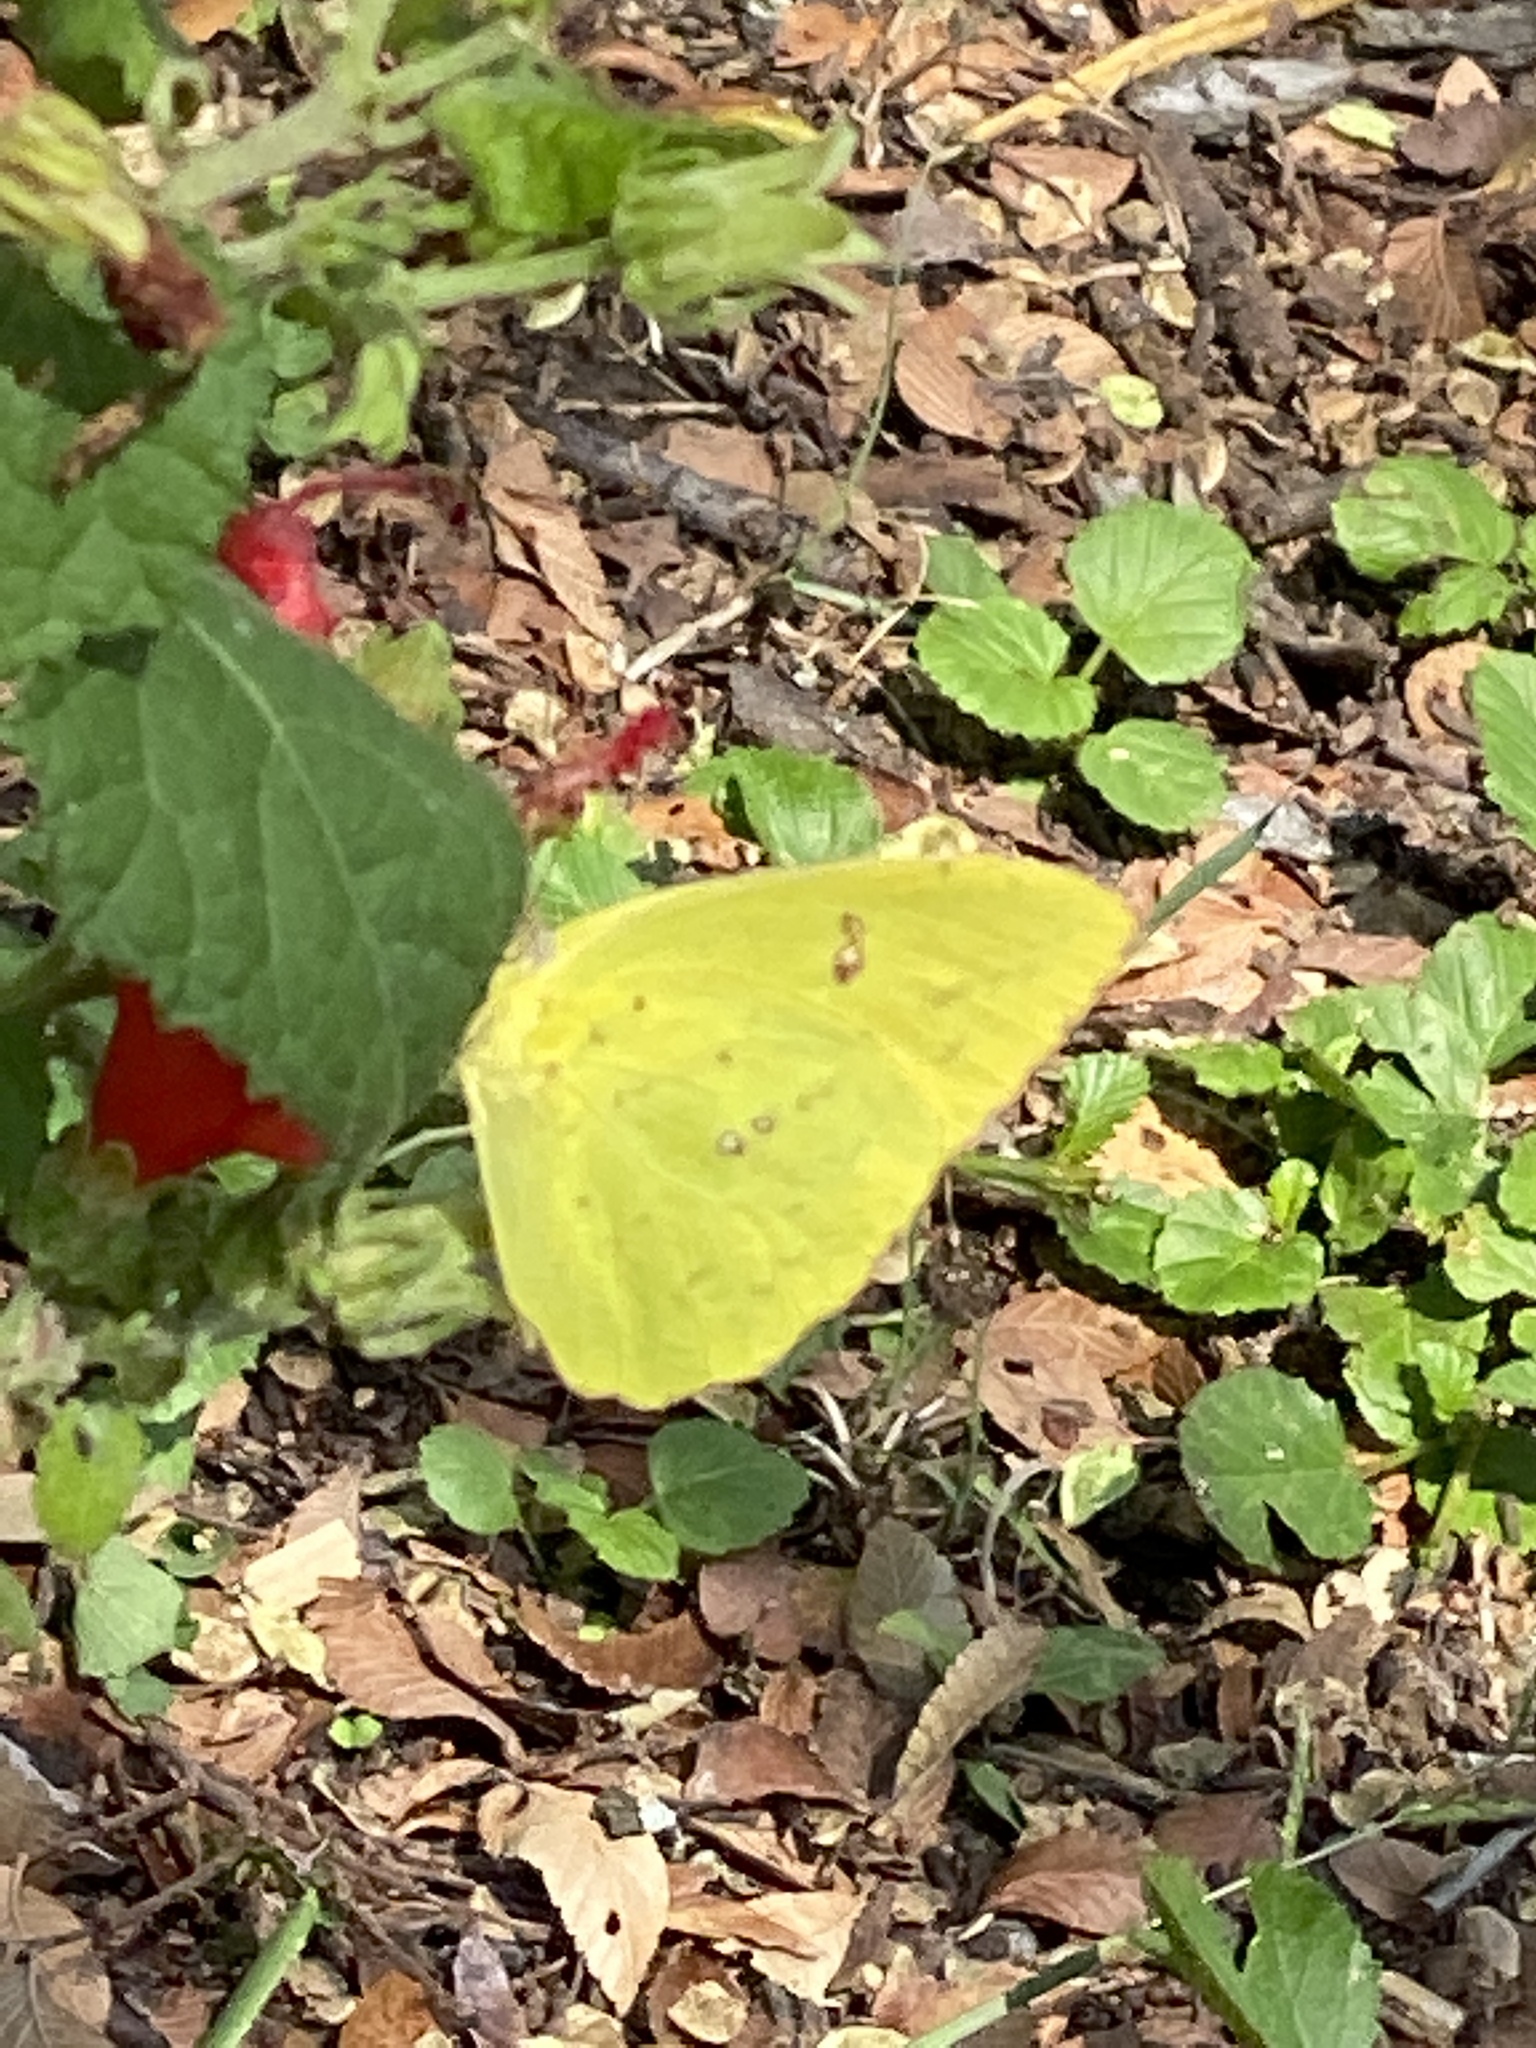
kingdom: Animalia
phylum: Arthropoda
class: Insecta
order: Lepidoptera
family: Pieridae
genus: Phoebis
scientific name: Phoebis sennae
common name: Cloudless sulphur
